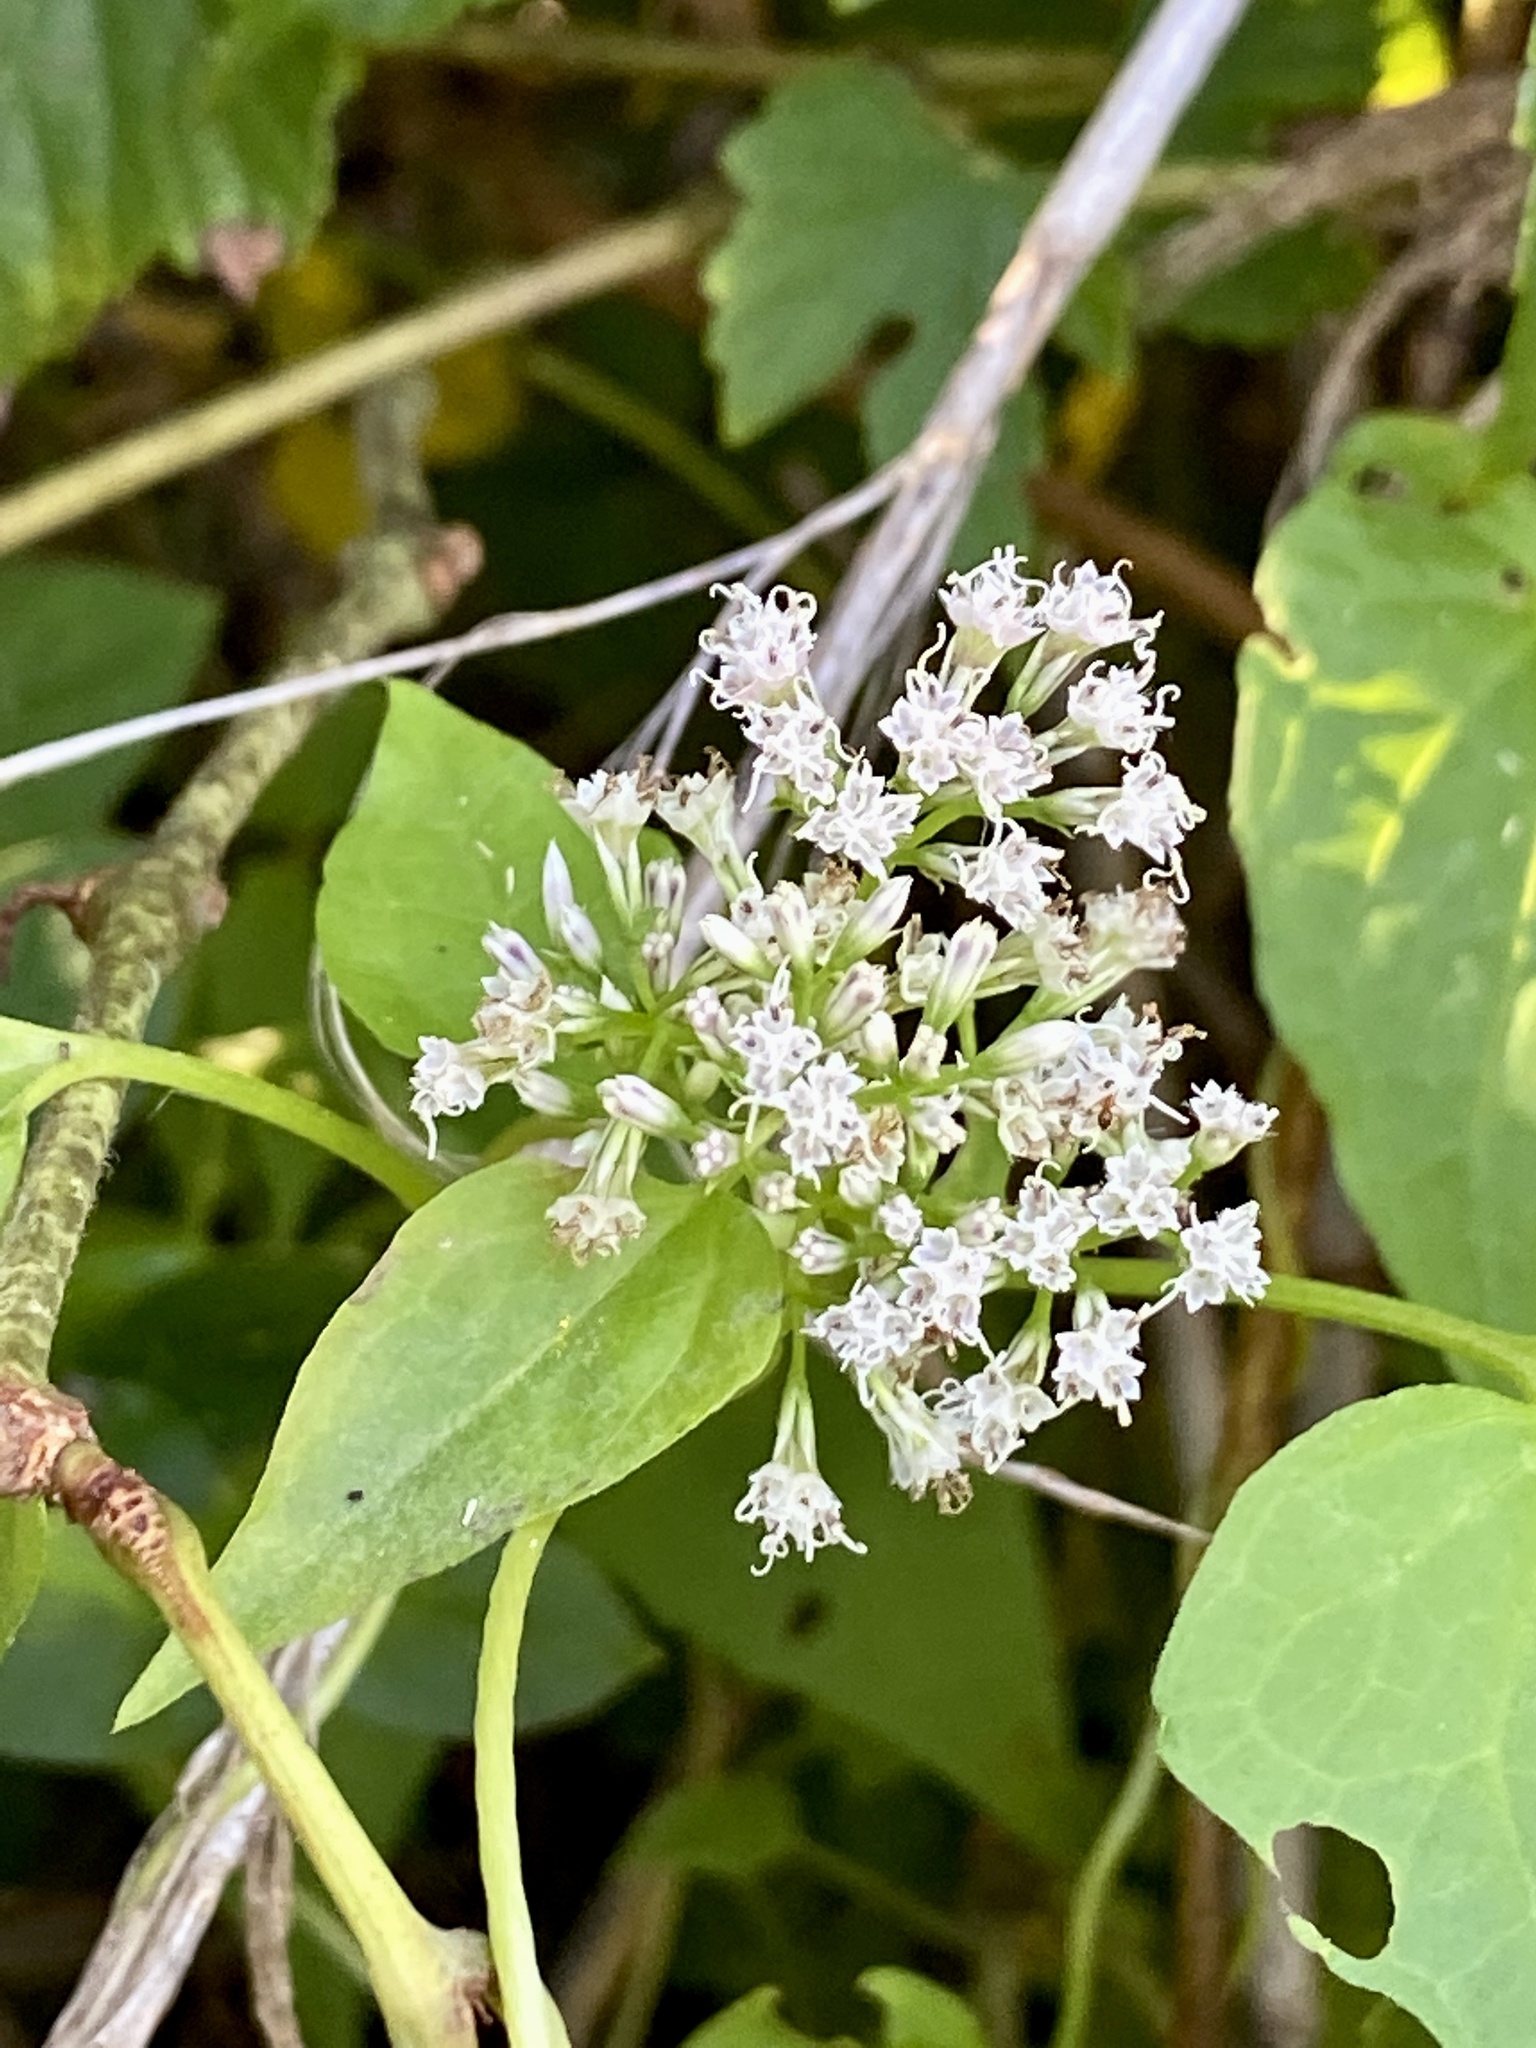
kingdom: Plantae
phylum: Tracheophyta
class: Magnoliopsida
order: Asterales
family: Asteraceae
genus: Mikania
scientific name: Mikania scandens
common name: Climbing hempvine
